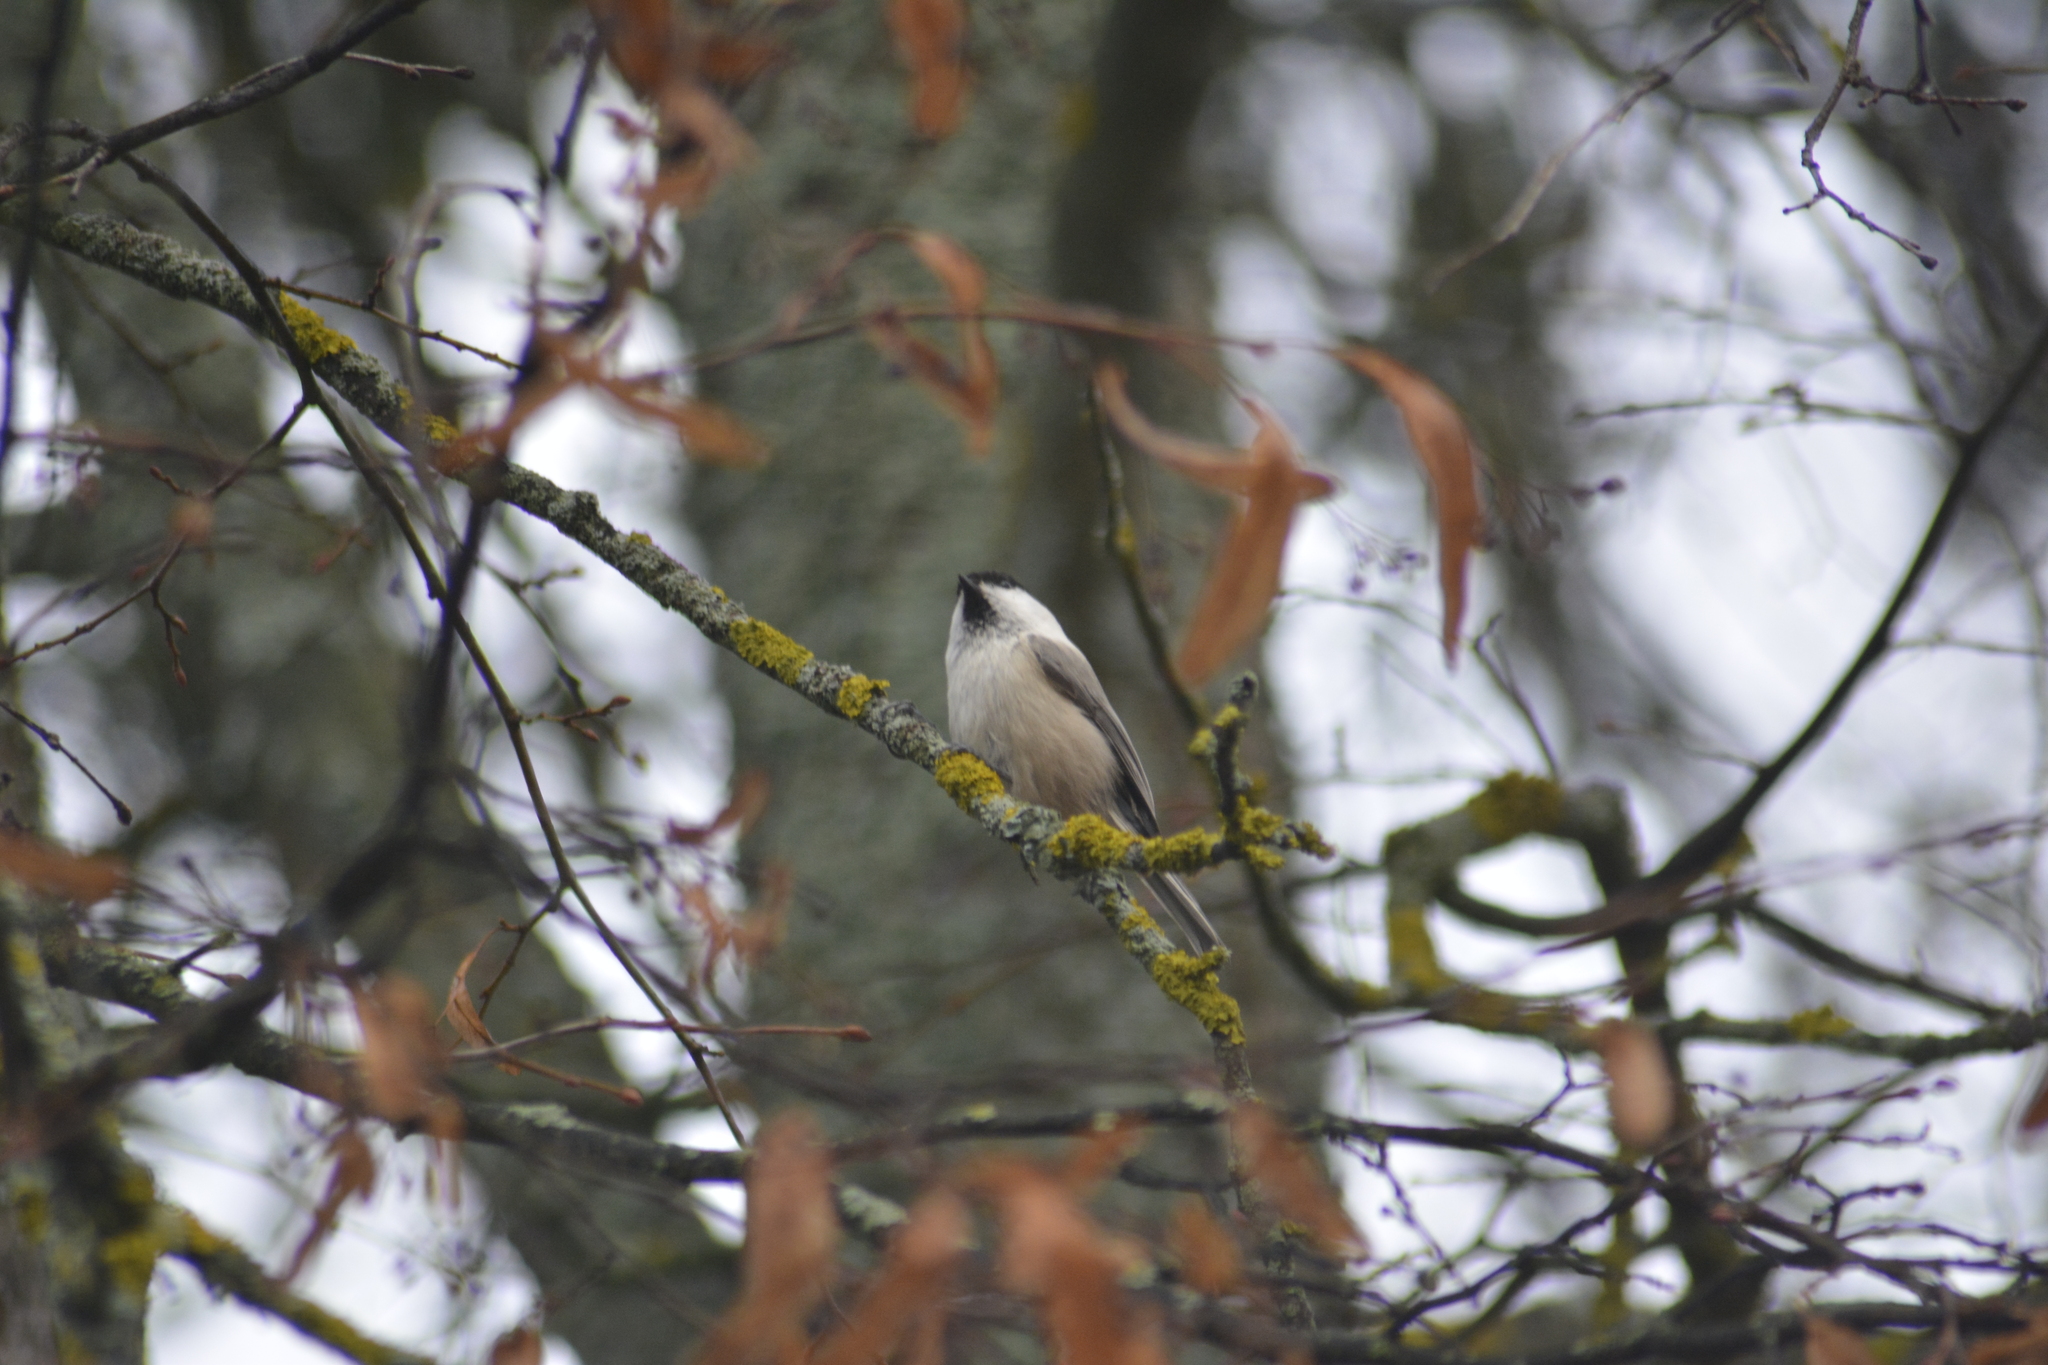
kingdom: Animalia
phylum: Chordata
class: Aves
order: Passeriformes
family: Paridae
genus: Poecile
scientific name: Poecile montanus
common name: Willow tit
